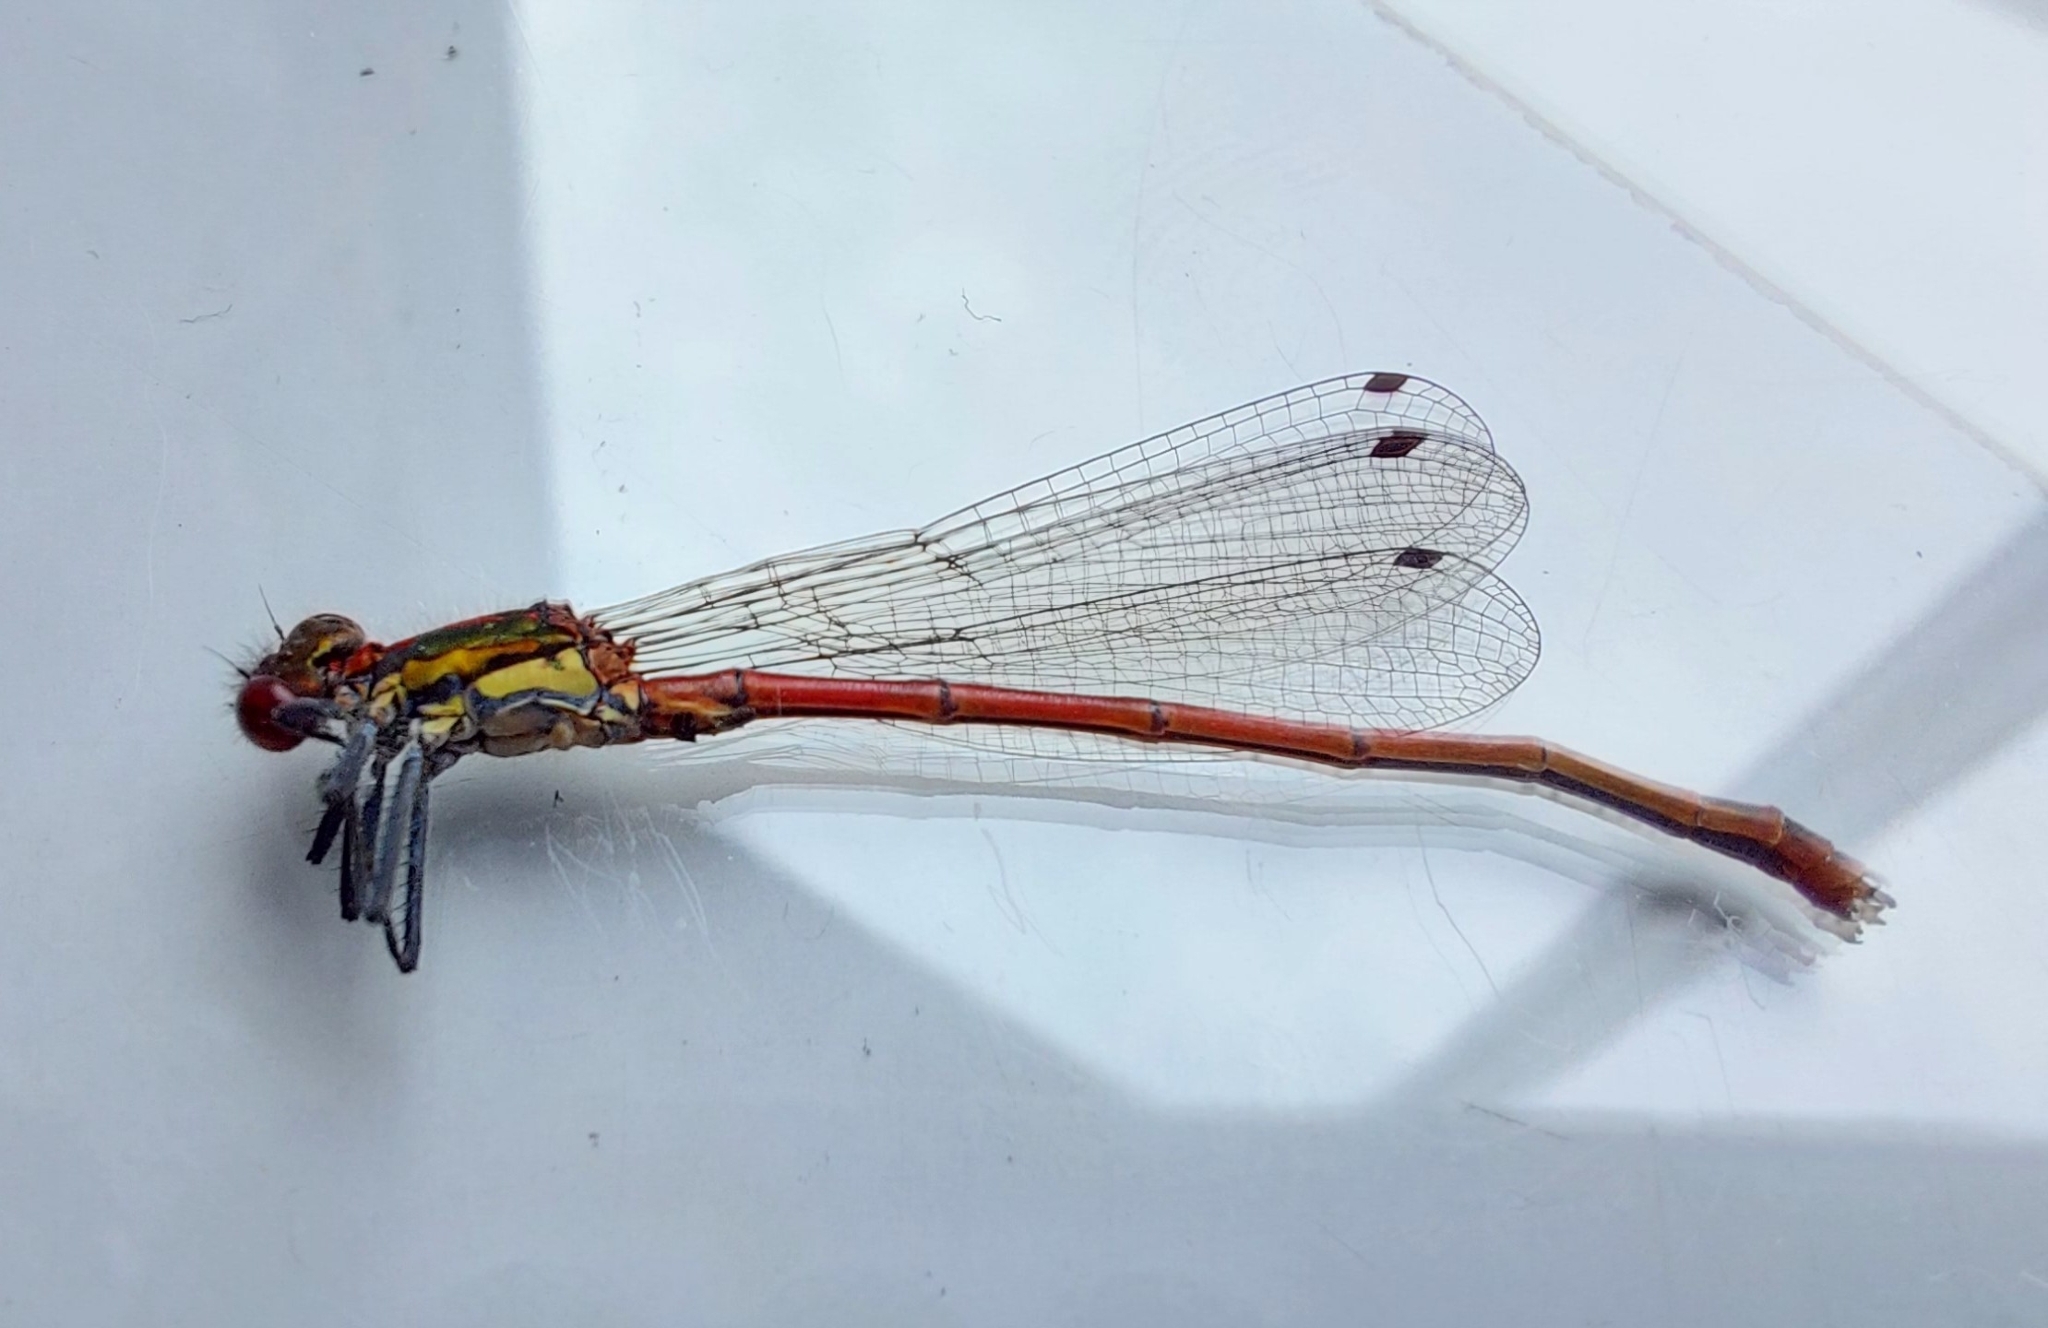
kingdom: Animalia
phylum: Arthropoda
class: Insecta
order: Odonata
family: Coenagrionidae
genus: Pyrrhosoma
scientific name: Pyrrhosoma nymphula
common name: Large red damsel
